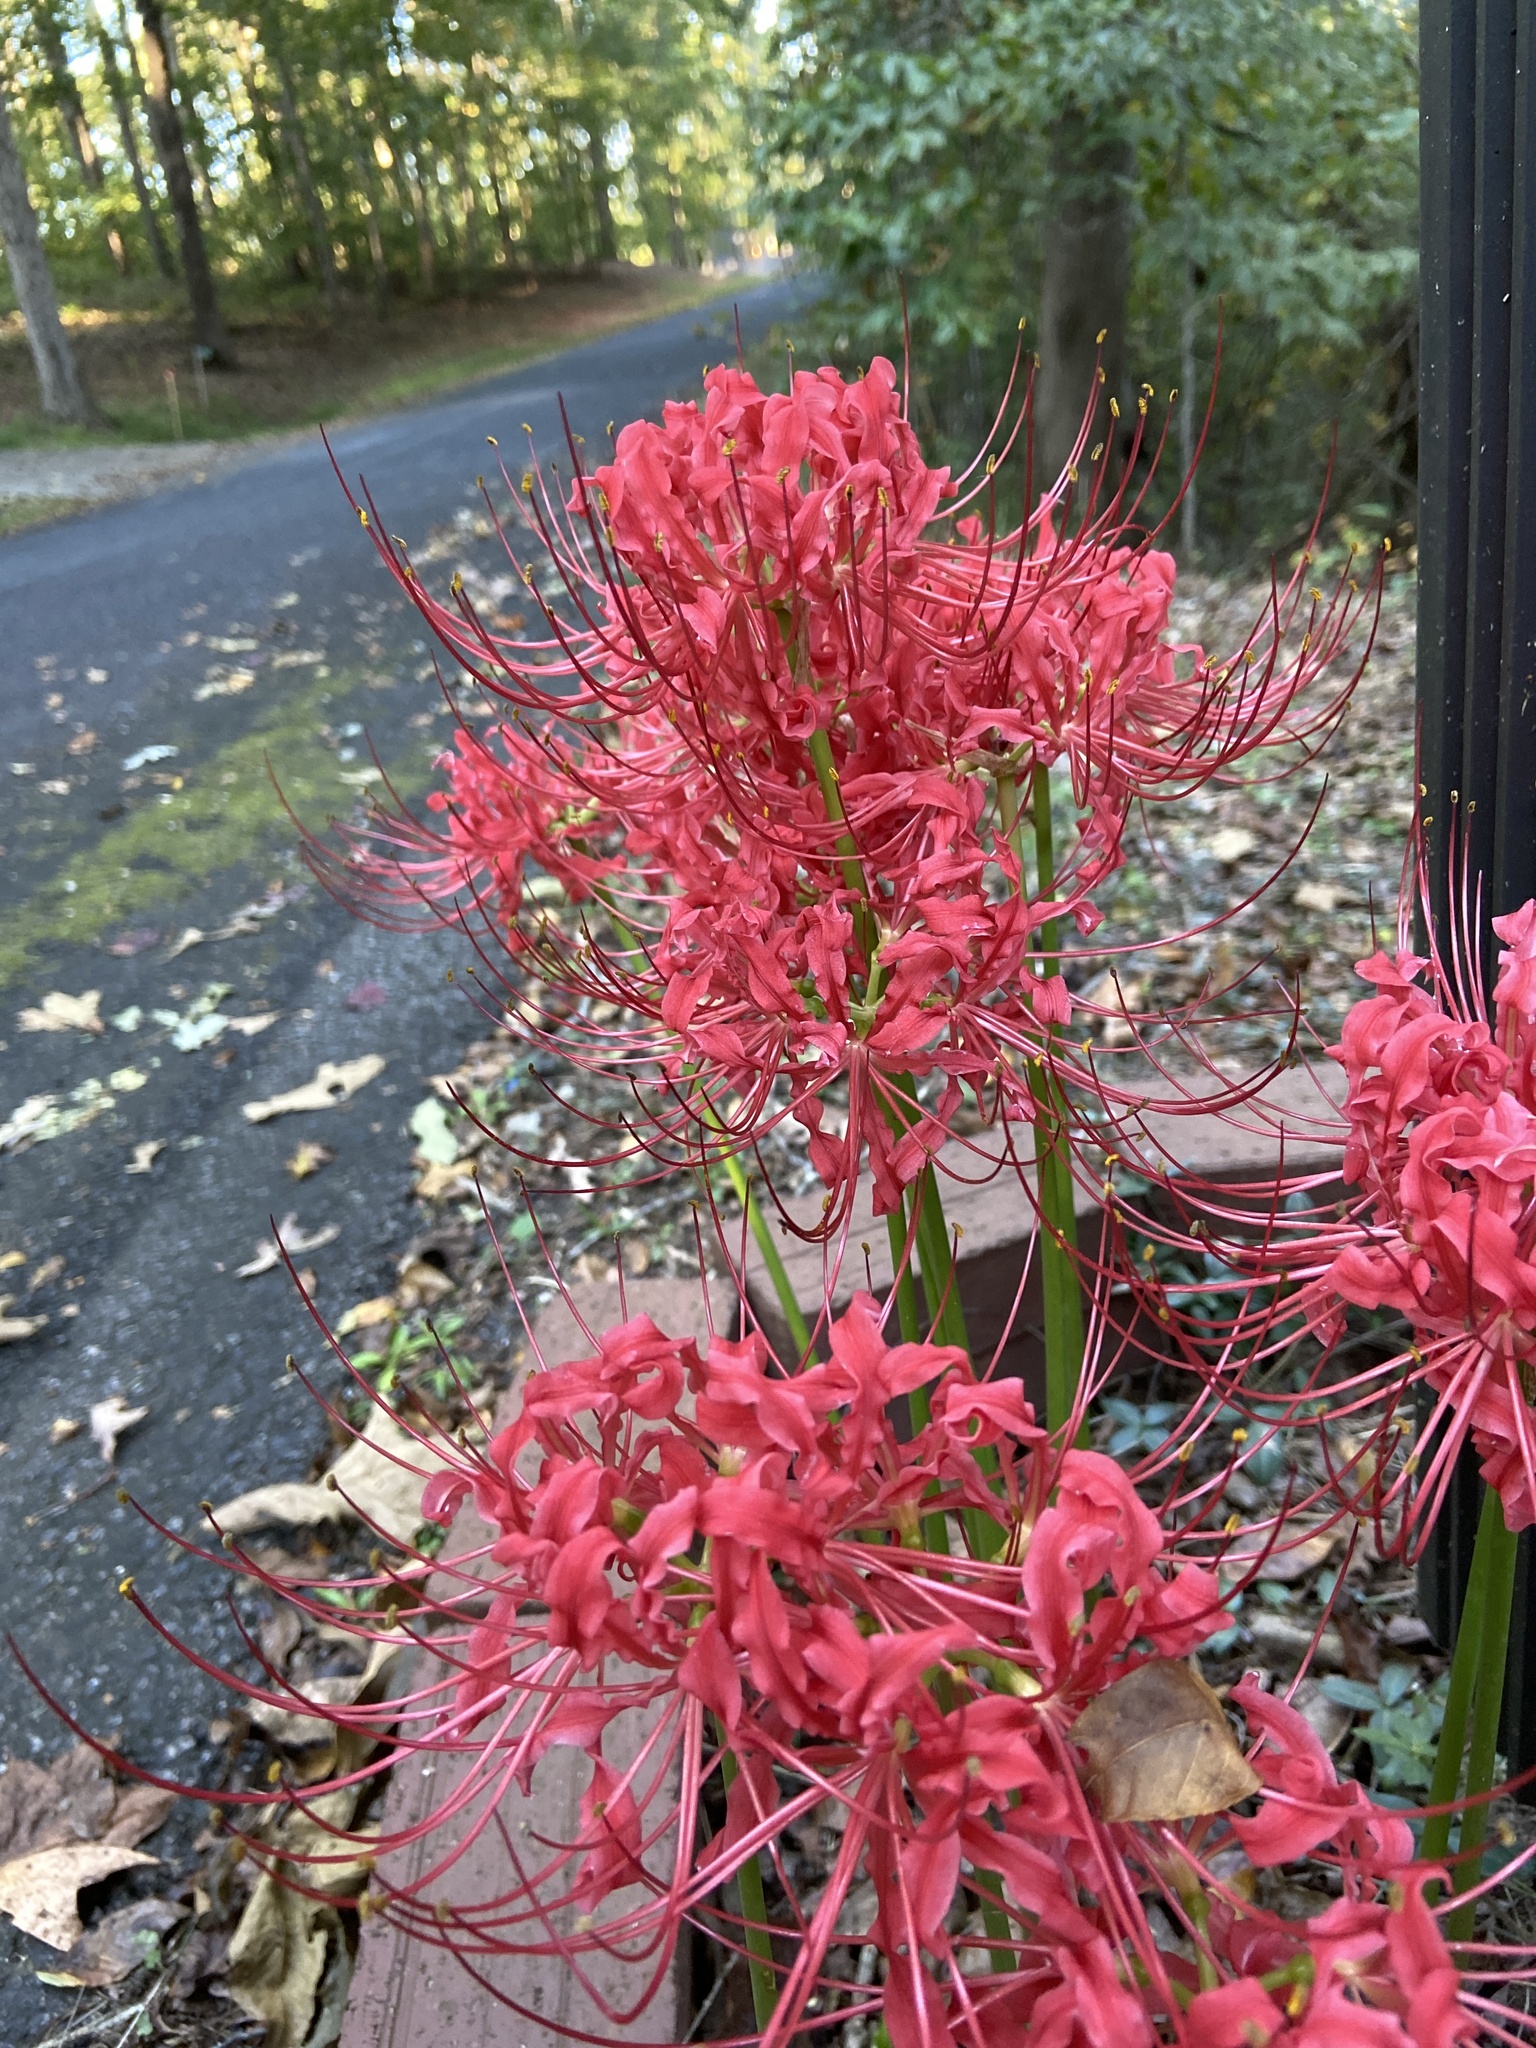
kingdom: Plantae
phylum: Tracheophyta
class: Liliopsida
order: Asparagales
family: Amaryllidaceae
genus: Lycoris
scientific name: Lycoris radiata
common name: Red spider lily
